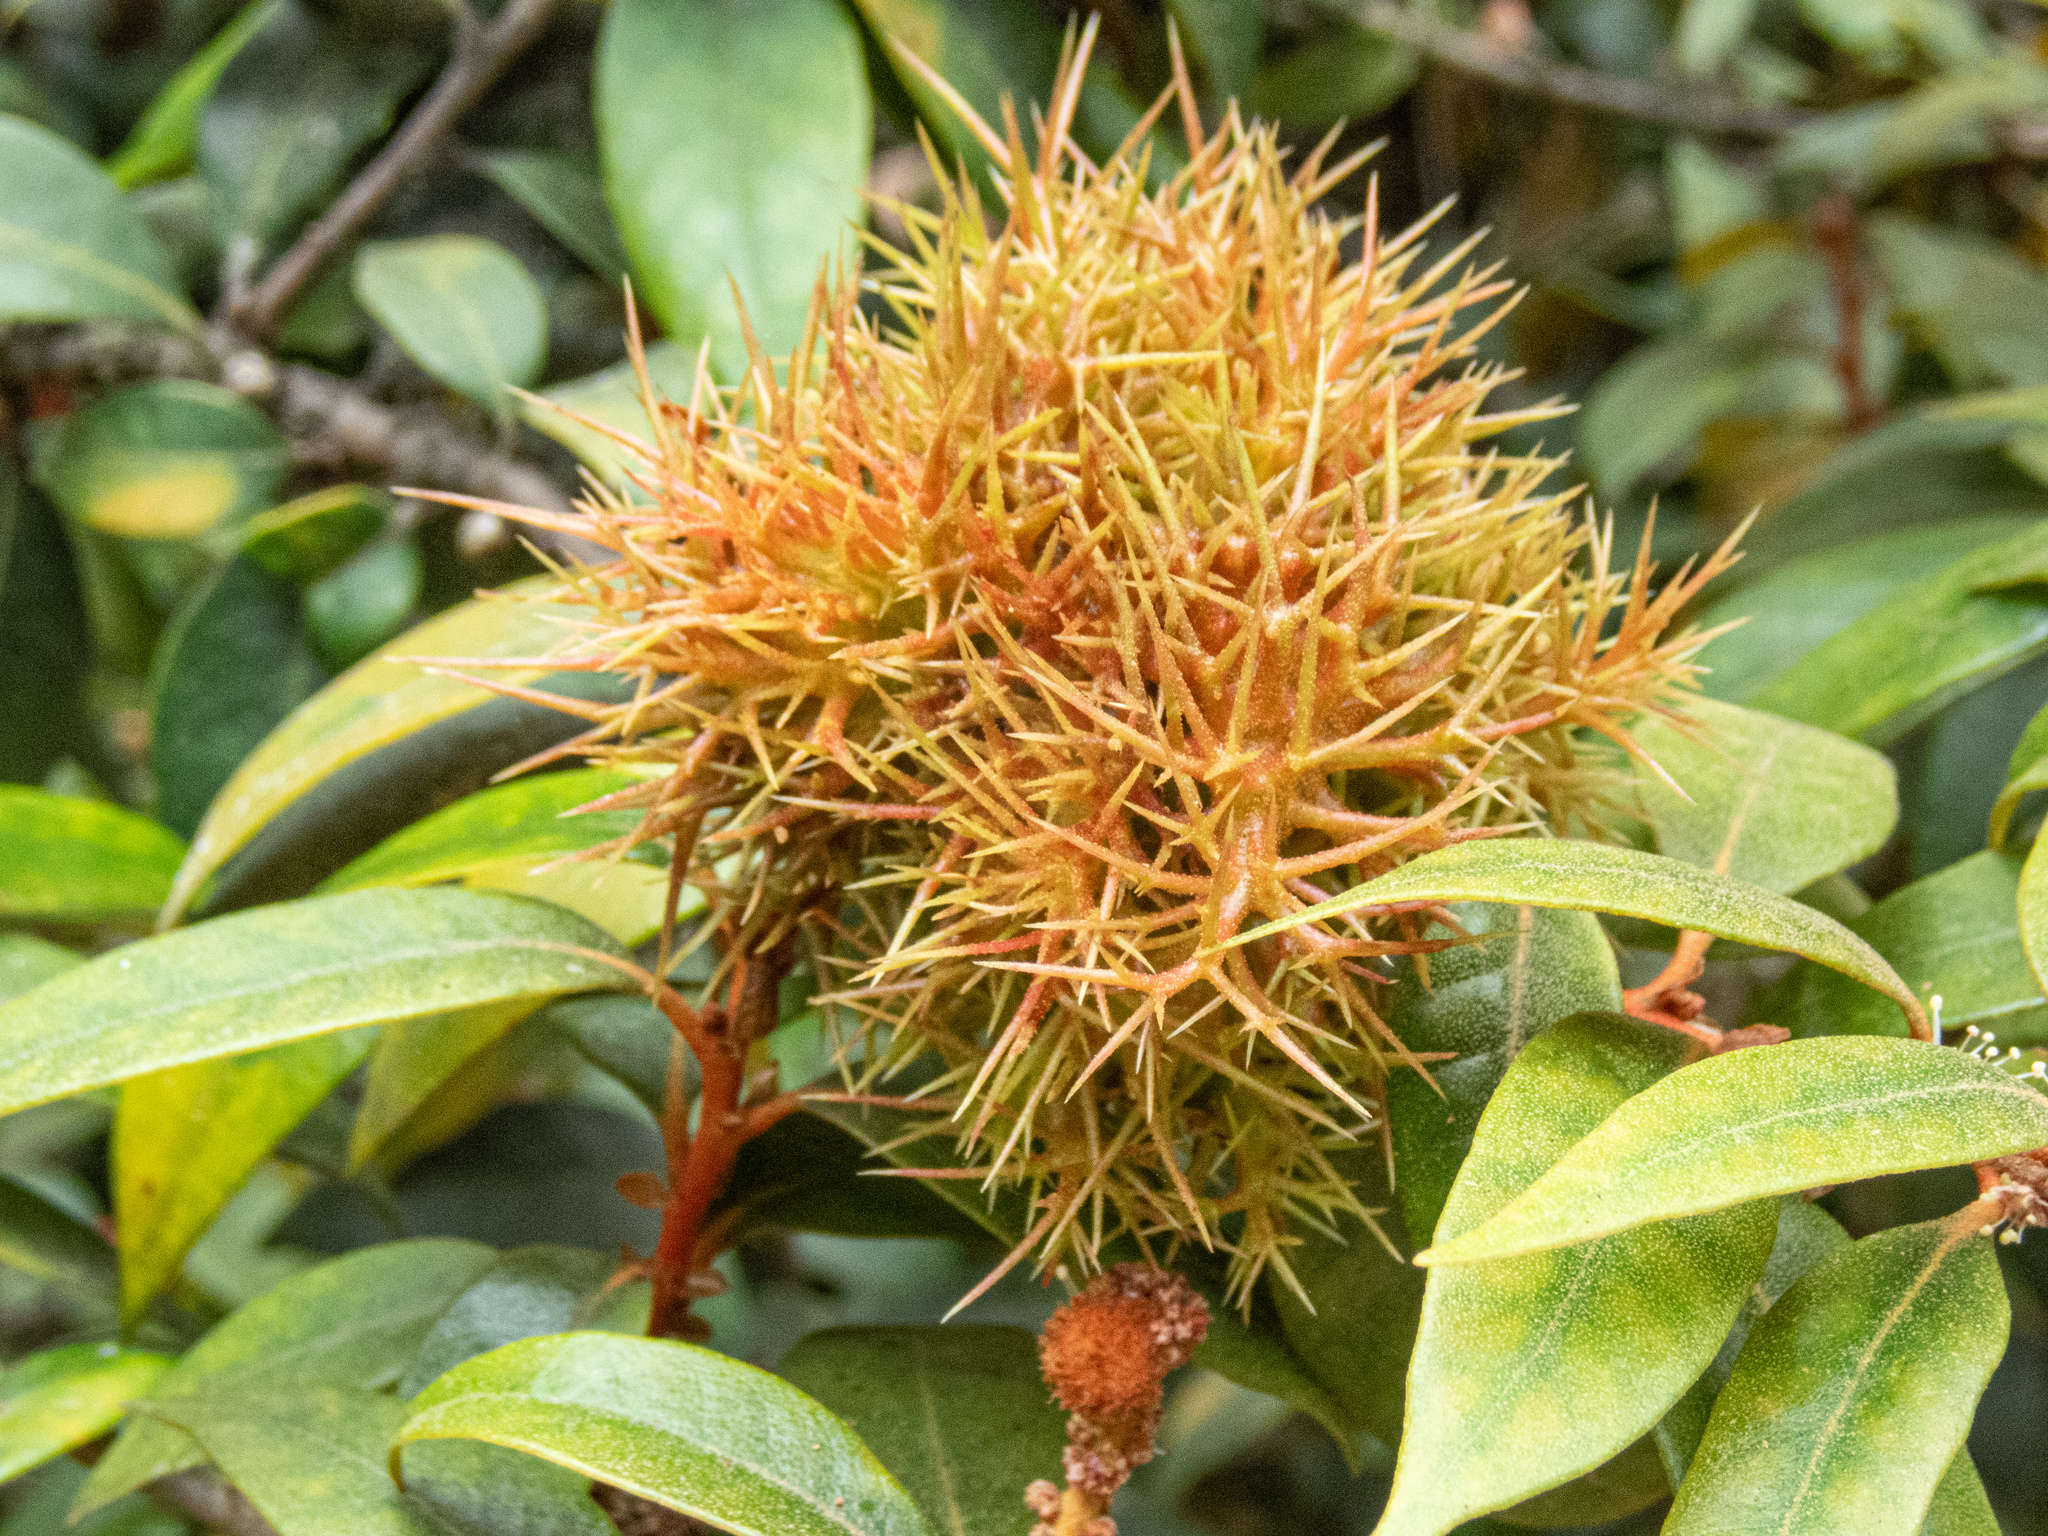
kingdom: Plantae
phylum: Tracheophyta
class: Magnoliopsida
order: Fagales
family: Fagaceae
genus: Chrysolepis
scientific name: Chrysolepis chrysophylla
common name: Giant chinquapin
